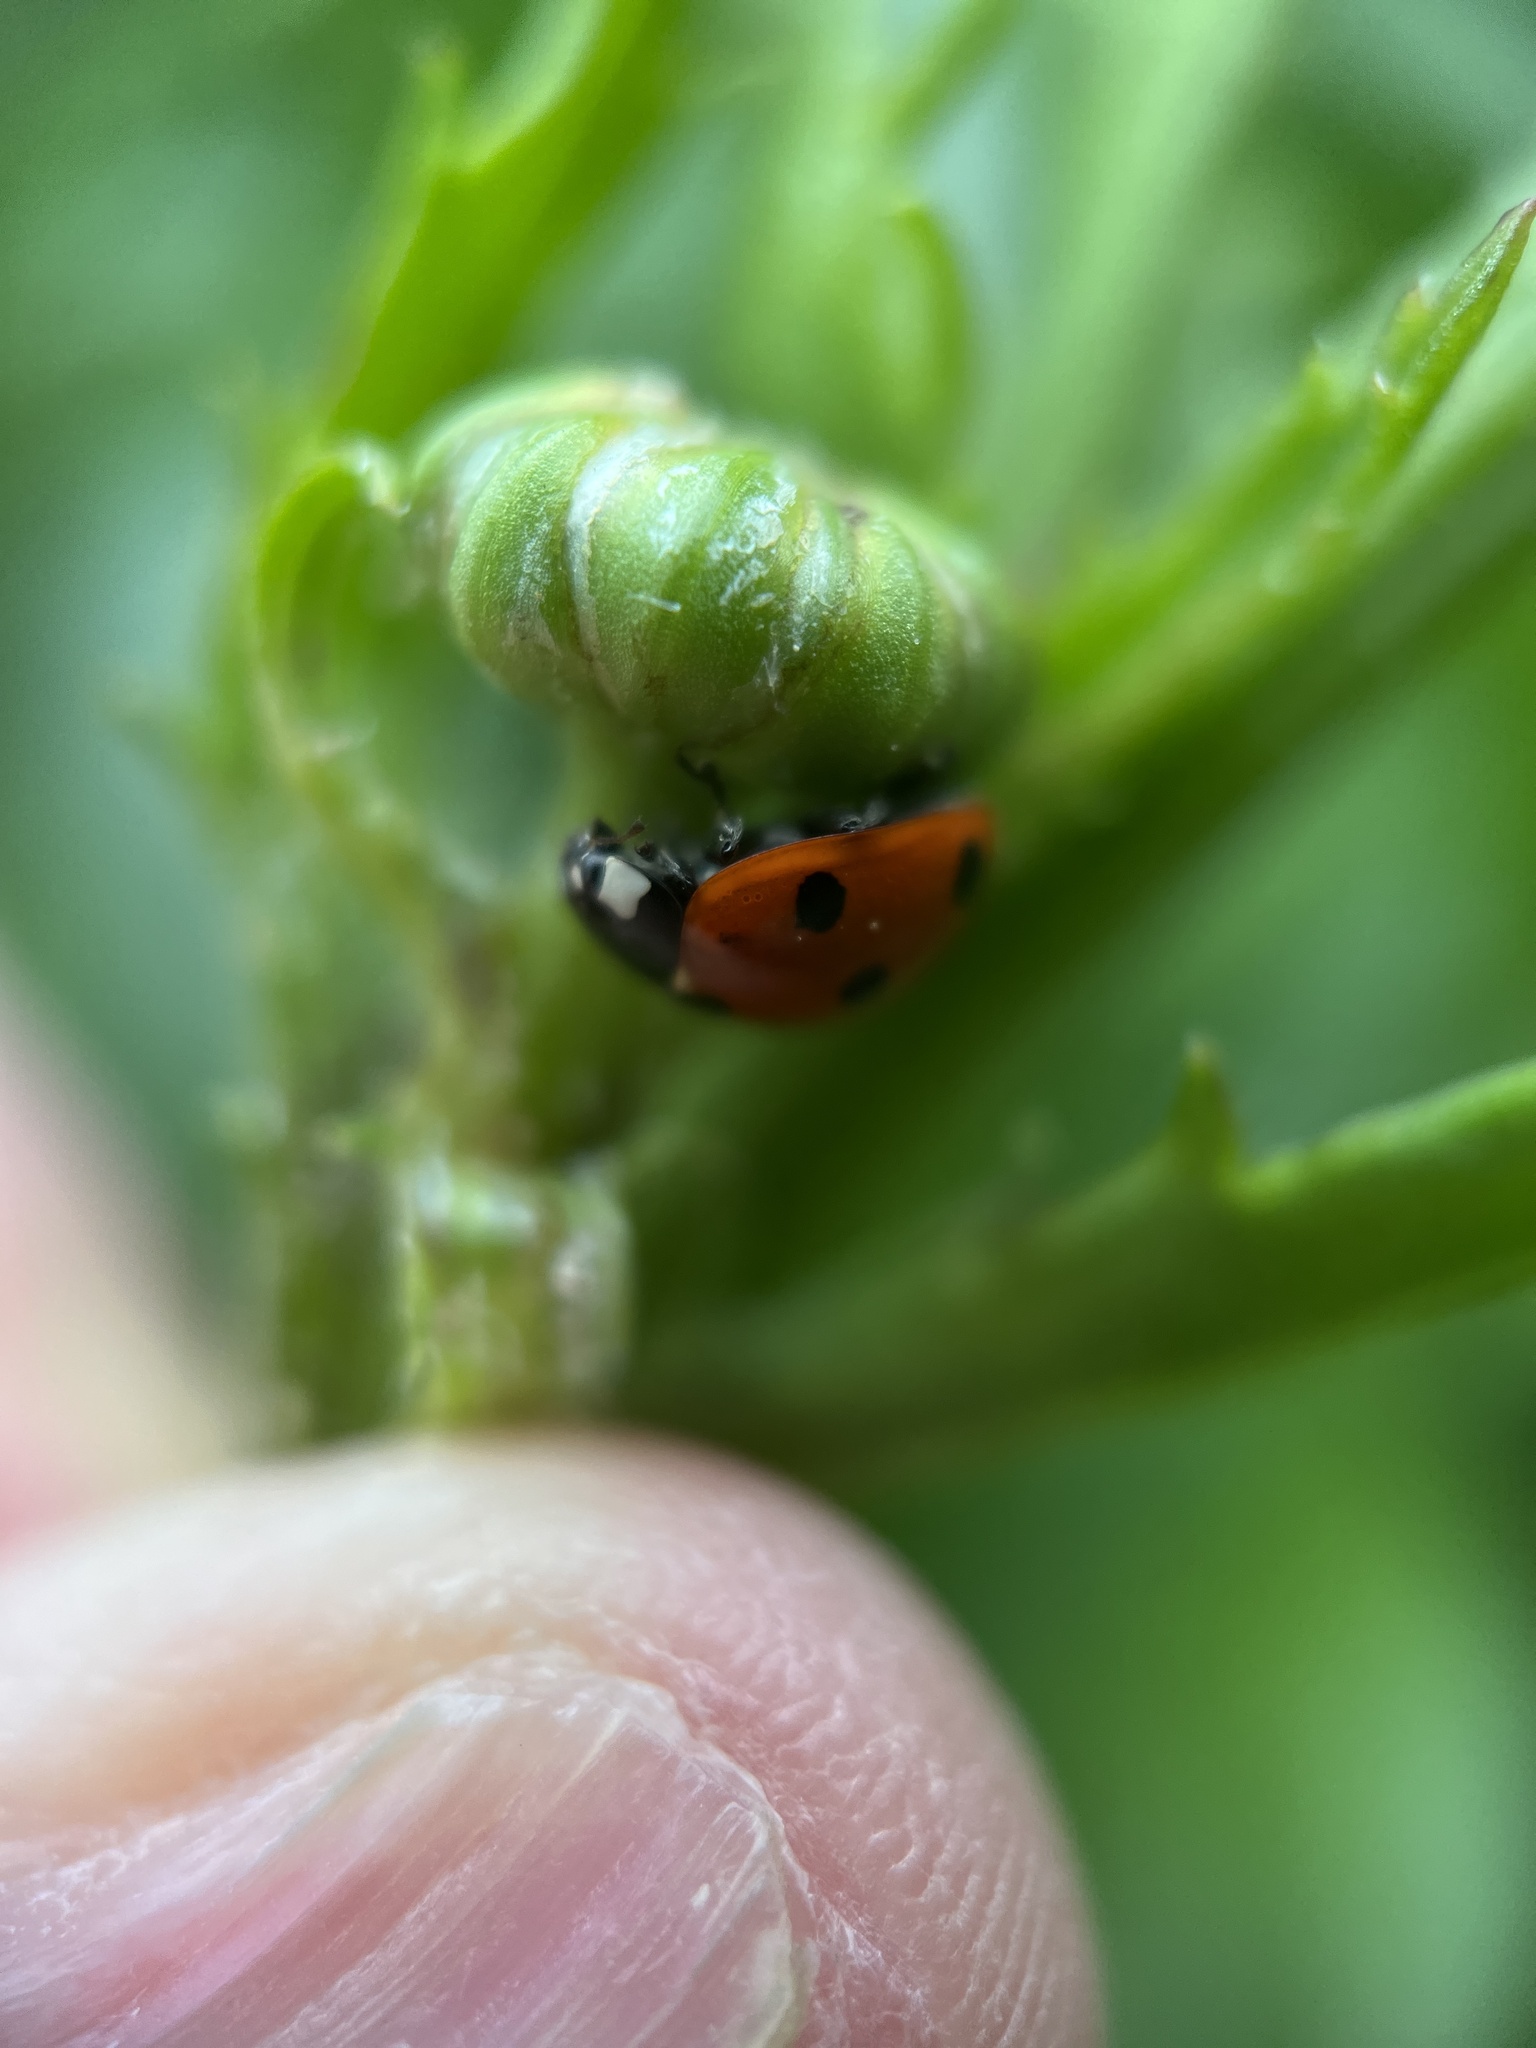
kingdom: Animalia
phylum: Arthropoda
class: Insecta
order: Coleoptera
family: Coccinellidae
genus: Coccinella
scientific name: Coccinella septempunctata
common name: Sevenspotted lady beetle
